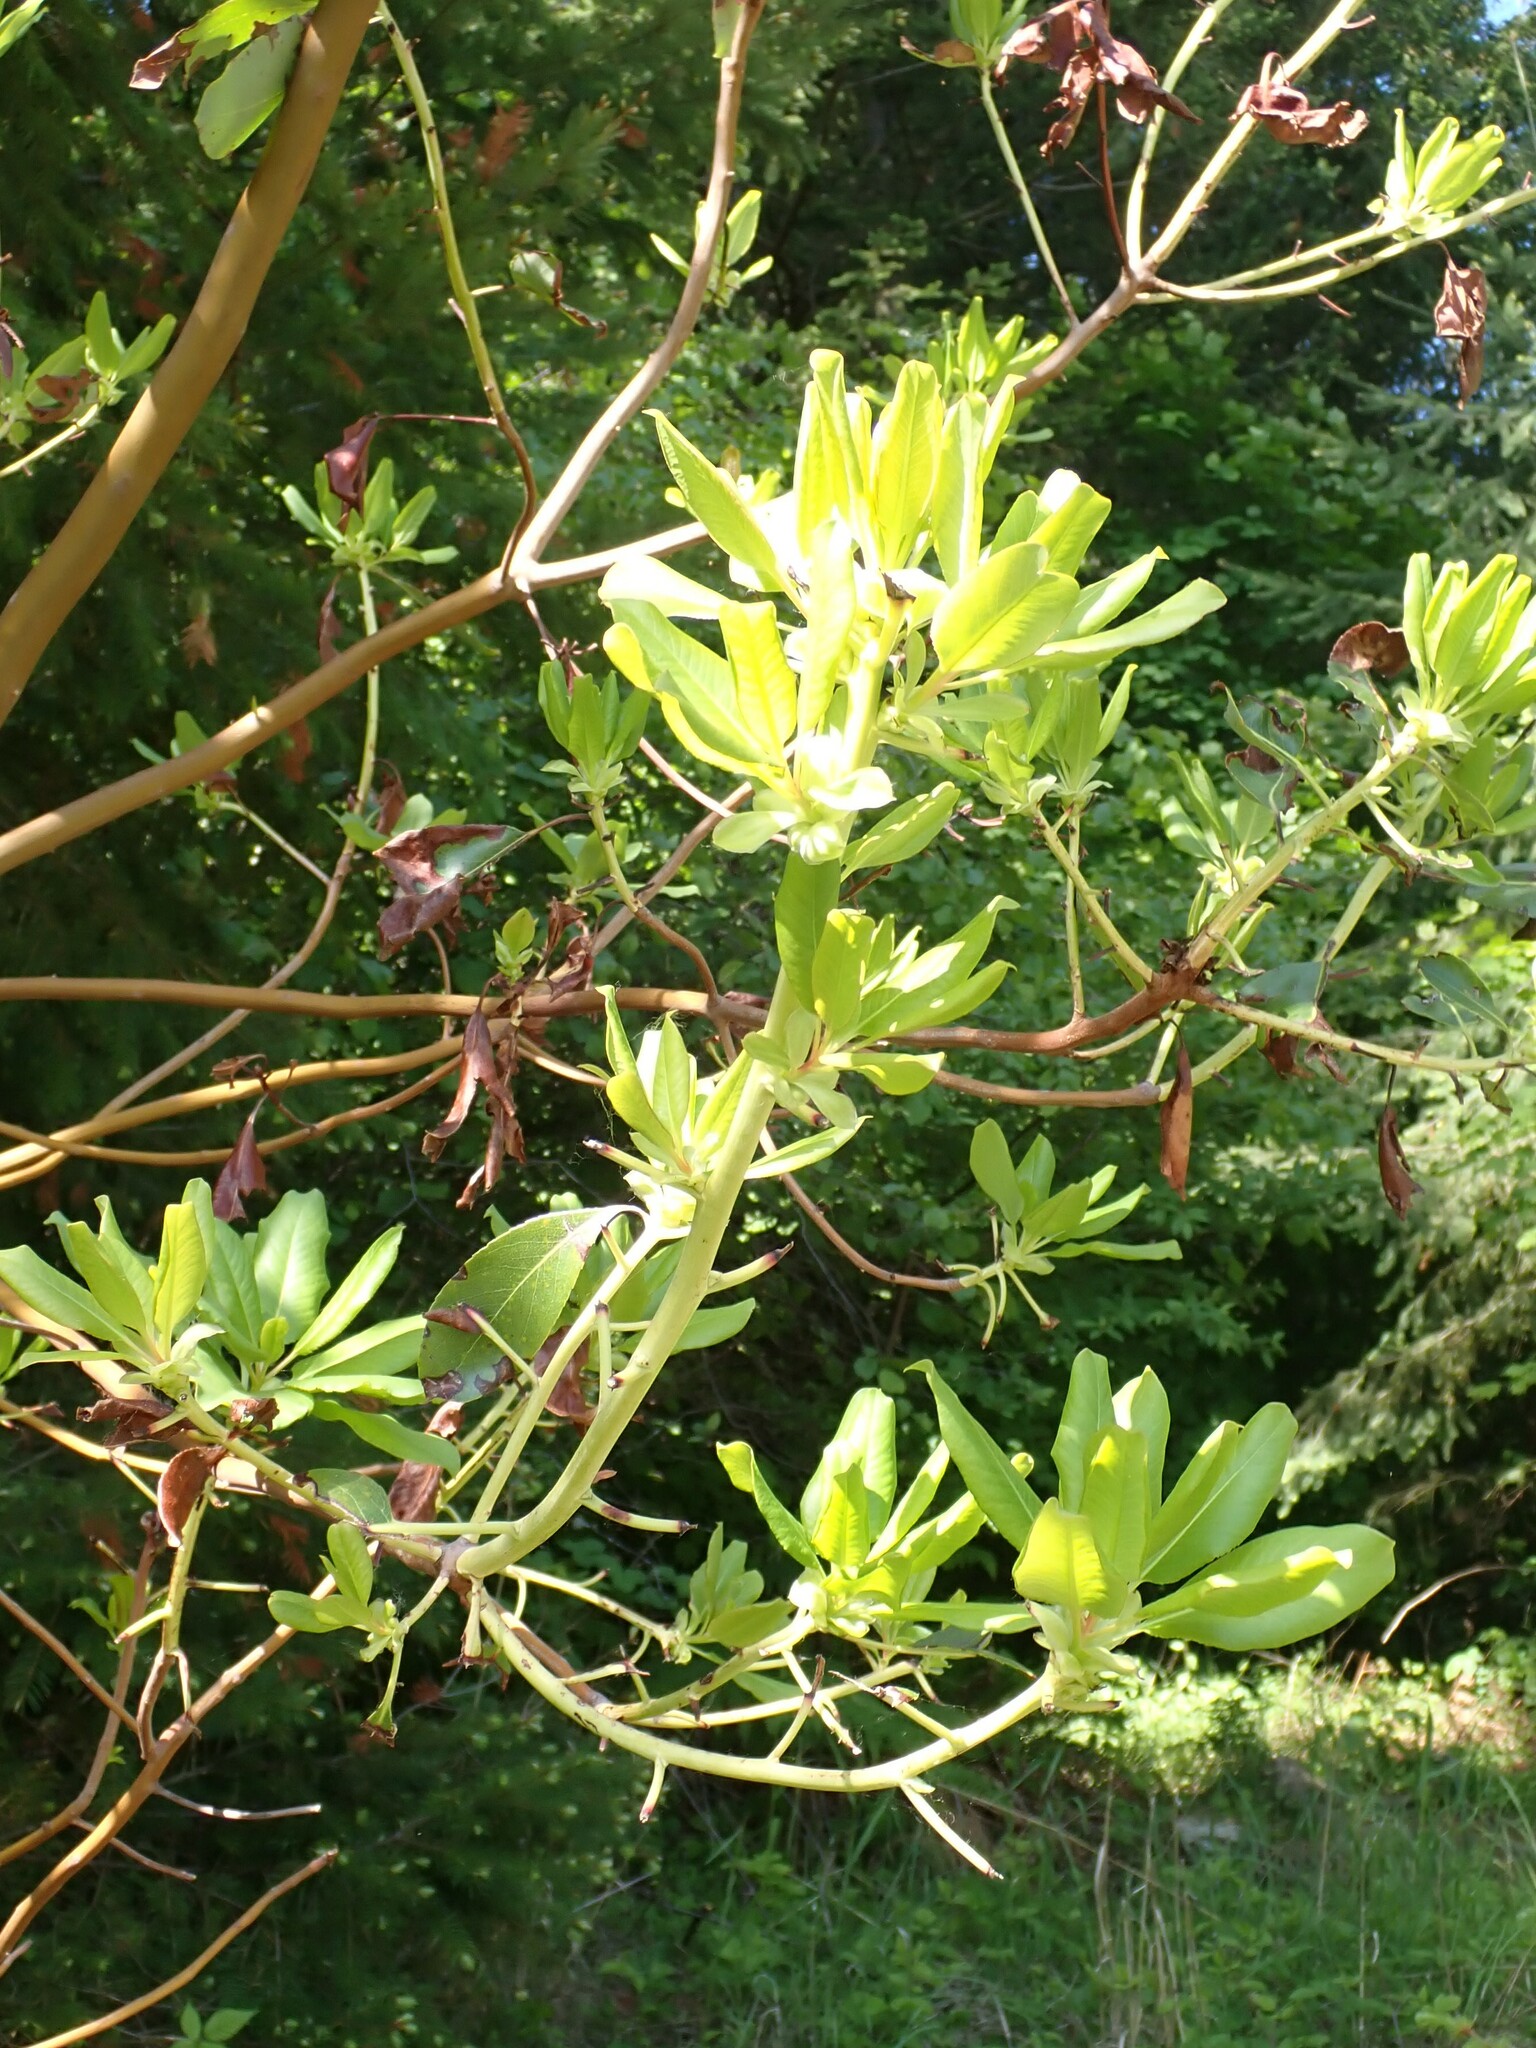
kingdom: Plantae
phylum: Tracheophyta
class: Magnoliopsida
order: Ericales
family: Ericaceae
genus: Arbutus
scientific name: Arbutus menziesii
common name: Pacific madrone
